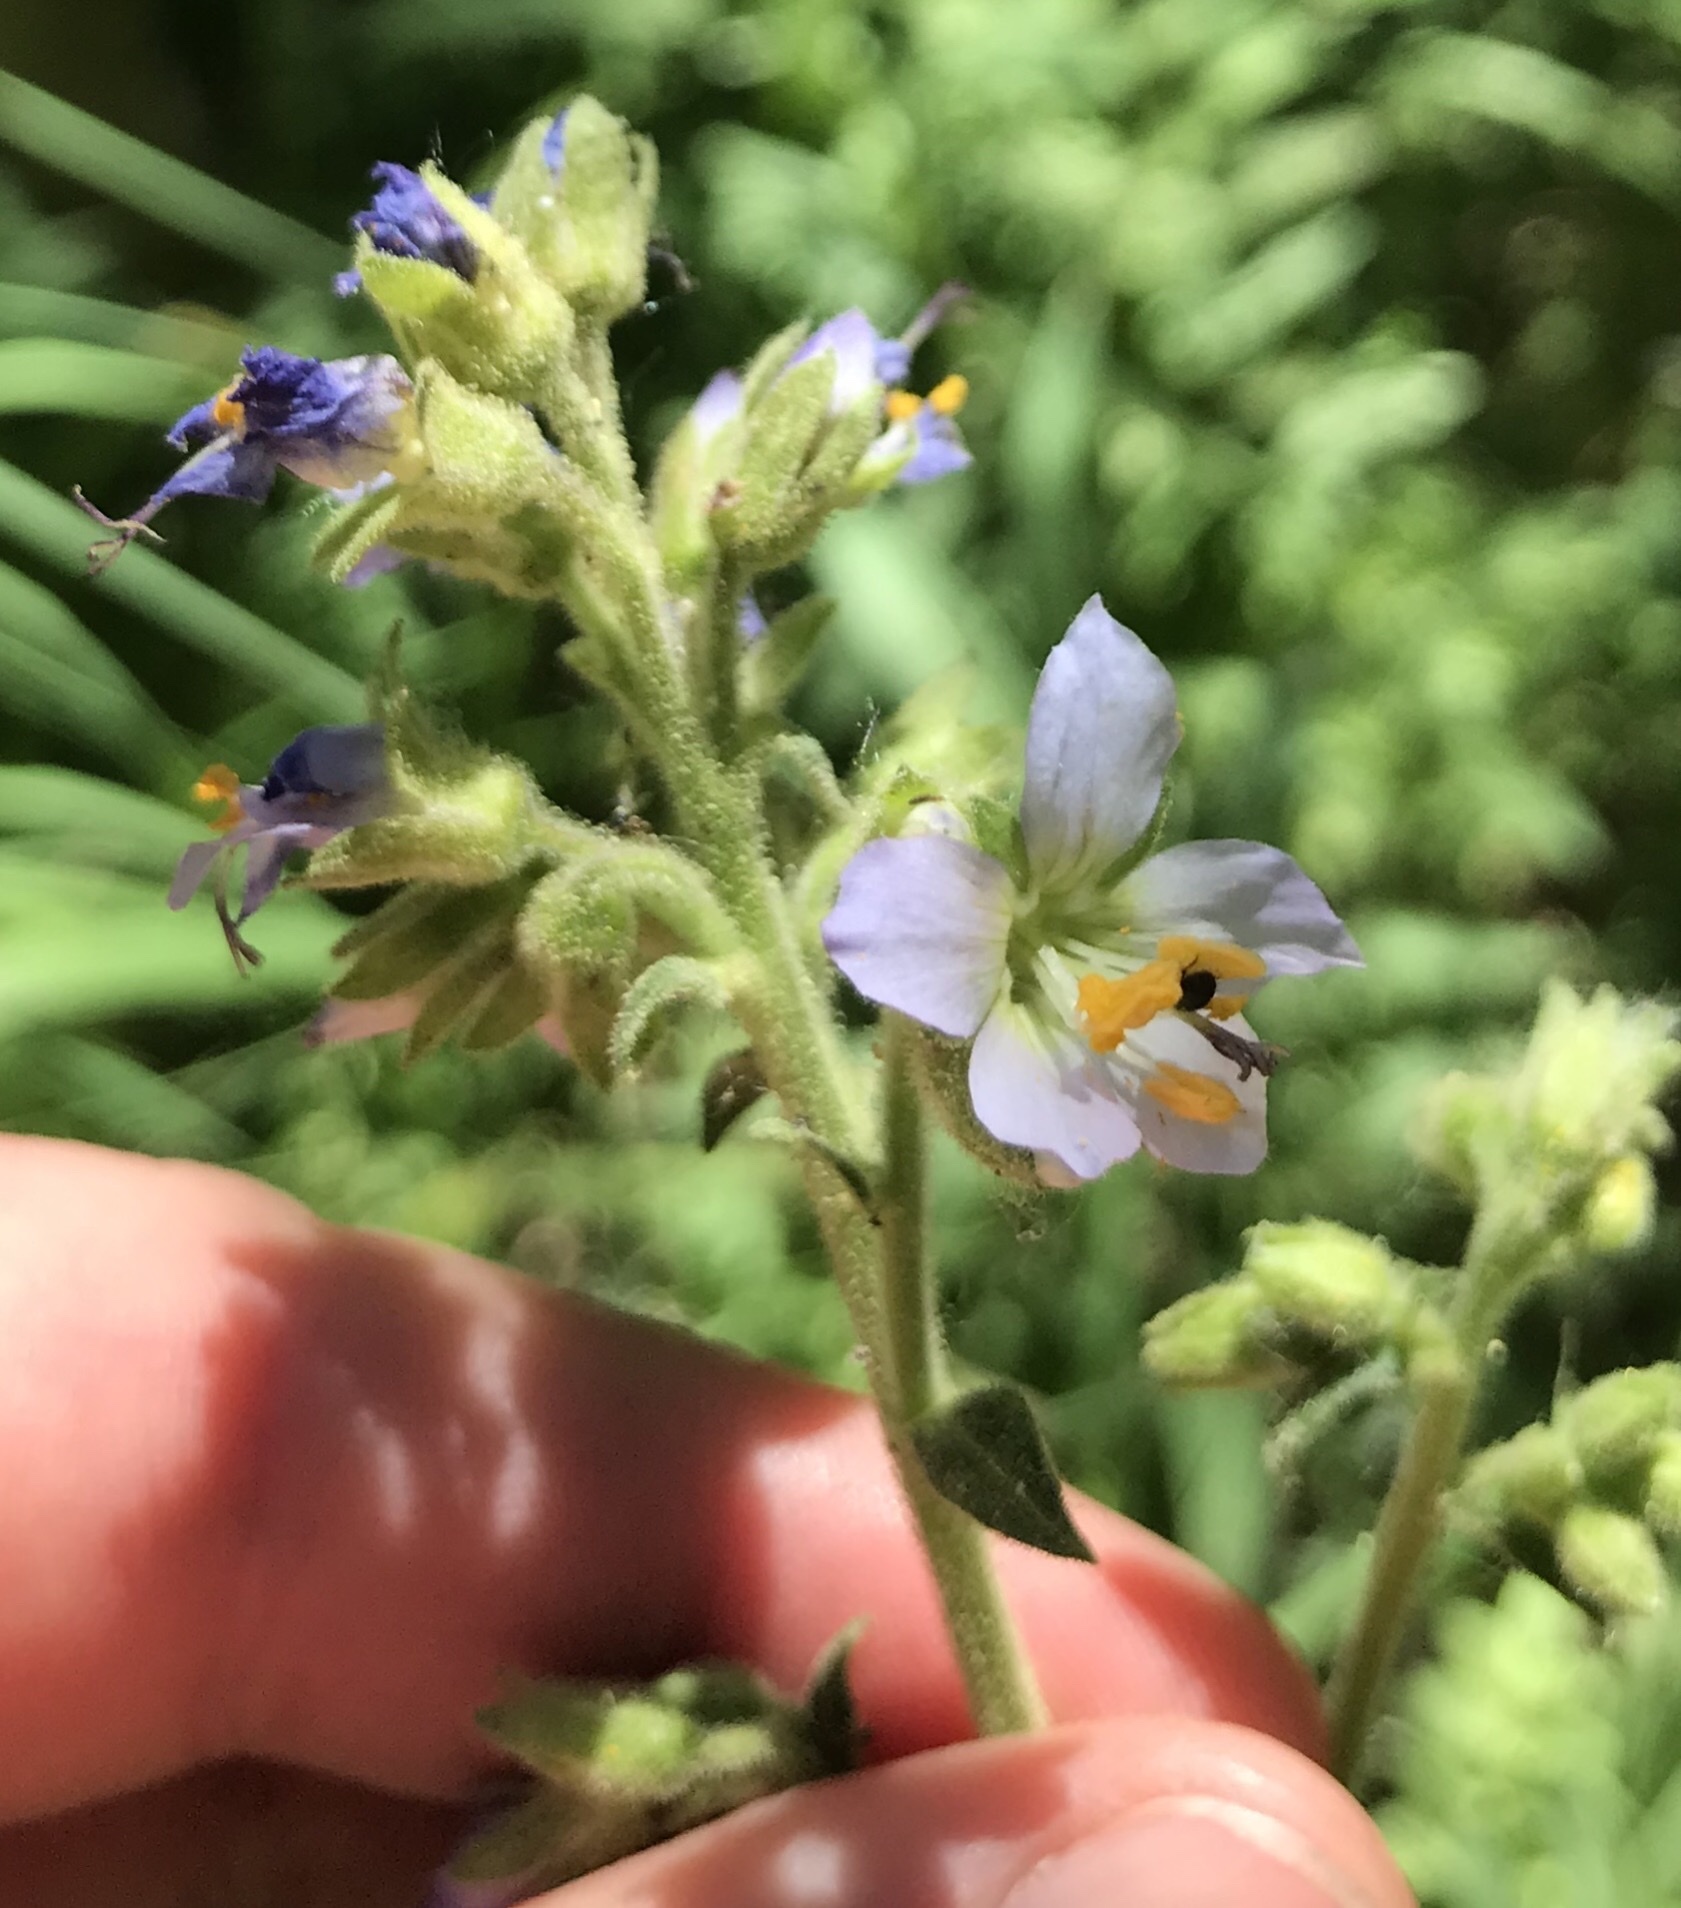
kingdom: Plantae
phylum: Tracheophyta
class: Magnoliopsida
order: Ericales
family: Polemoniaceae
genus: Polemonium
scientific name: Polemonium occidentale
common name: Western jacob's-ladder
